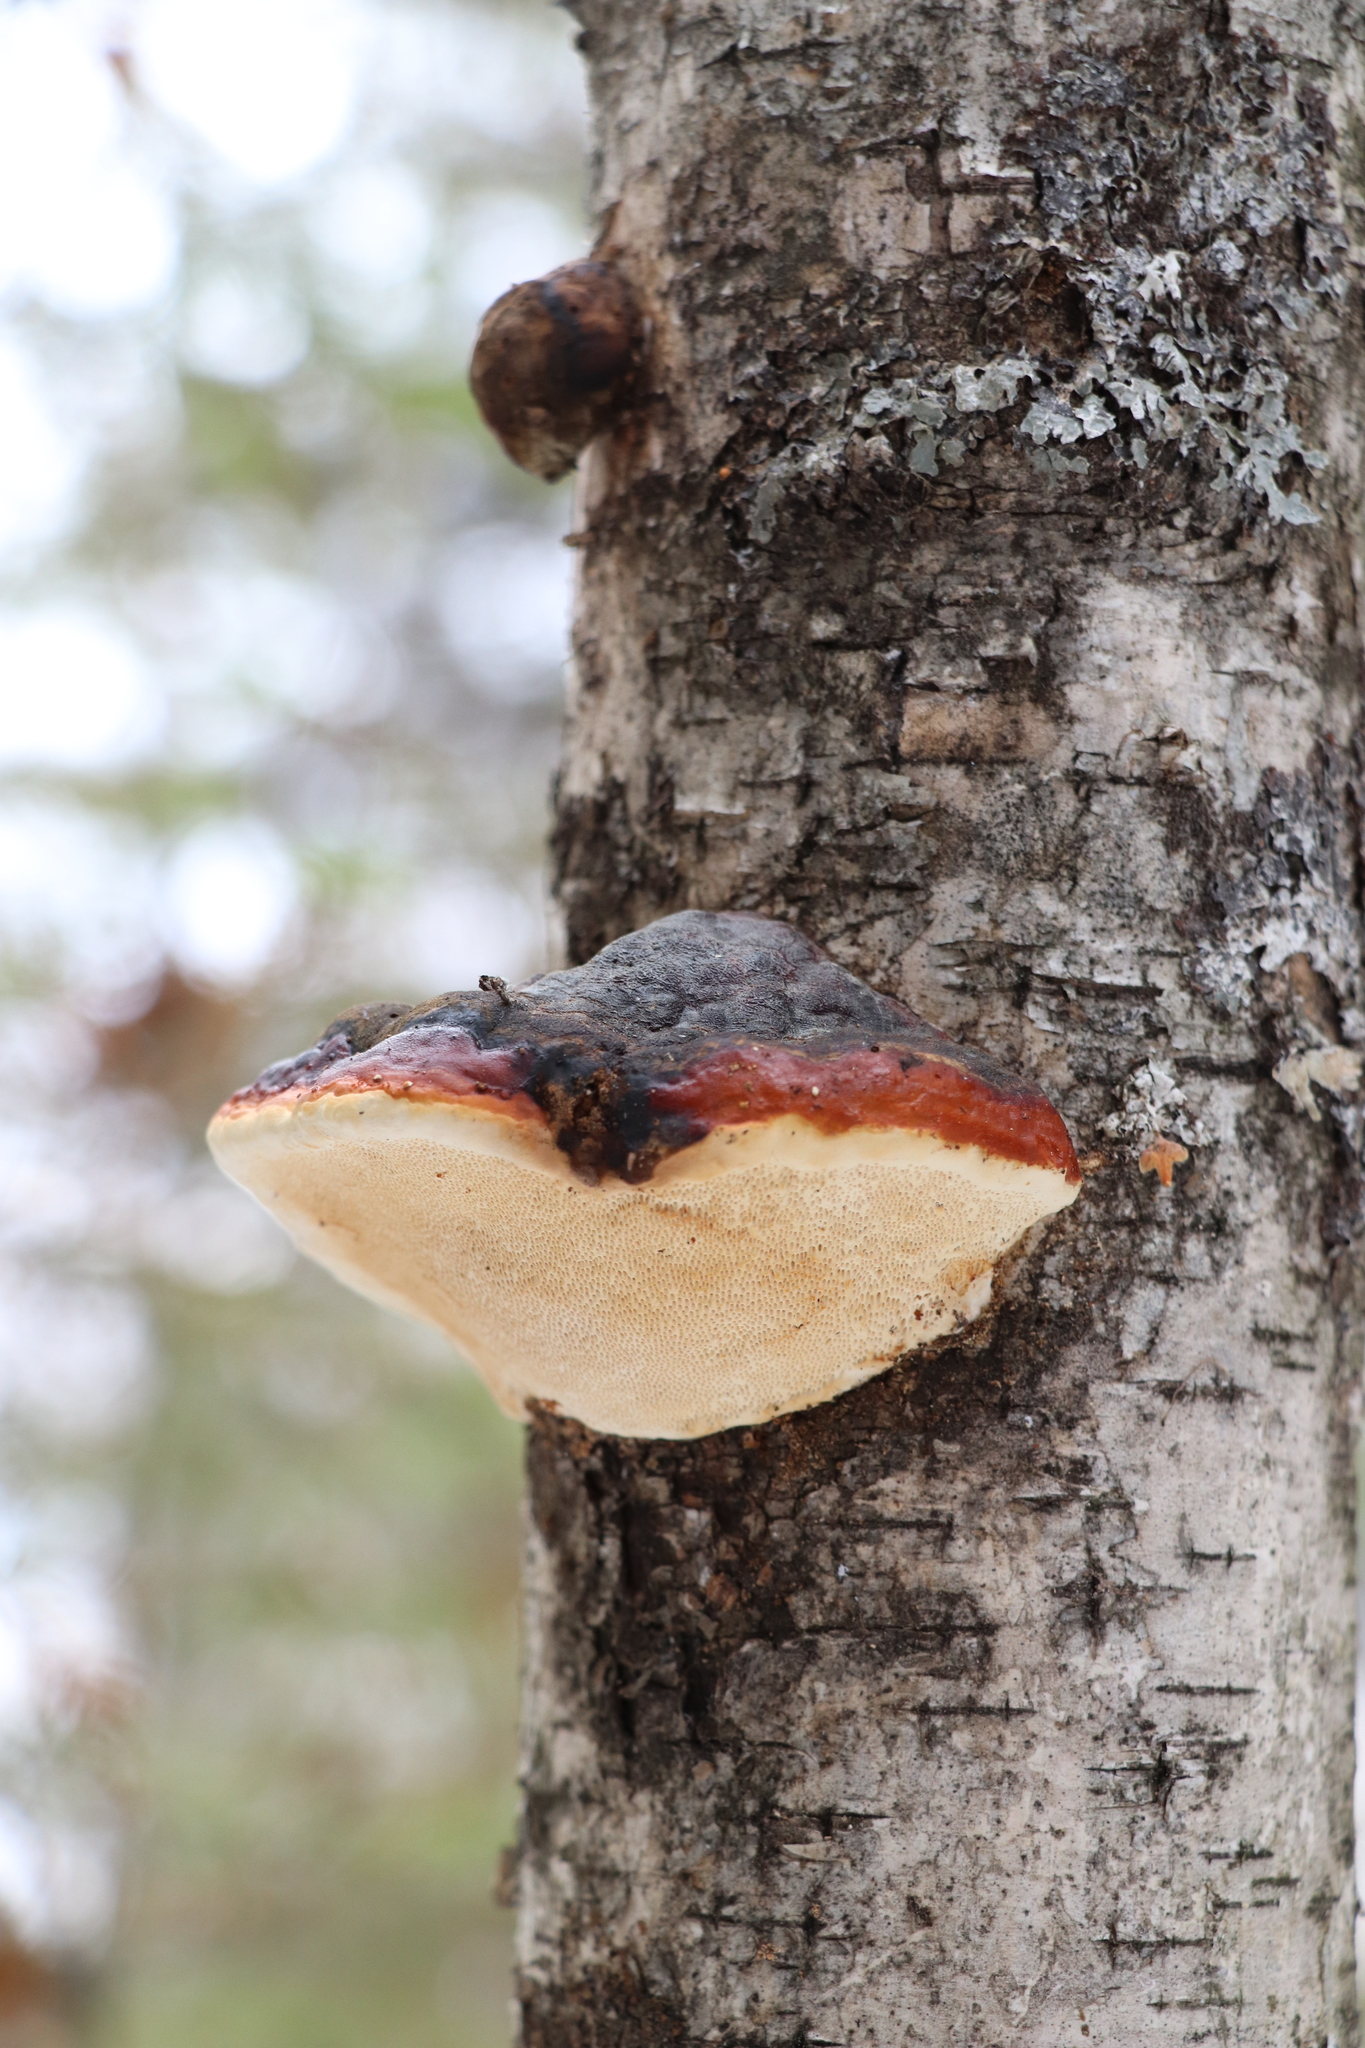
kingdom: Fungi
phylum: Basidiomycota
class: Agaricomycetes
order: Polyporales
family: Fomitopsidaceae
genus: Fomitopsis
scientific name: Fomitopsis pinicola
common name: Red-belted bracket
